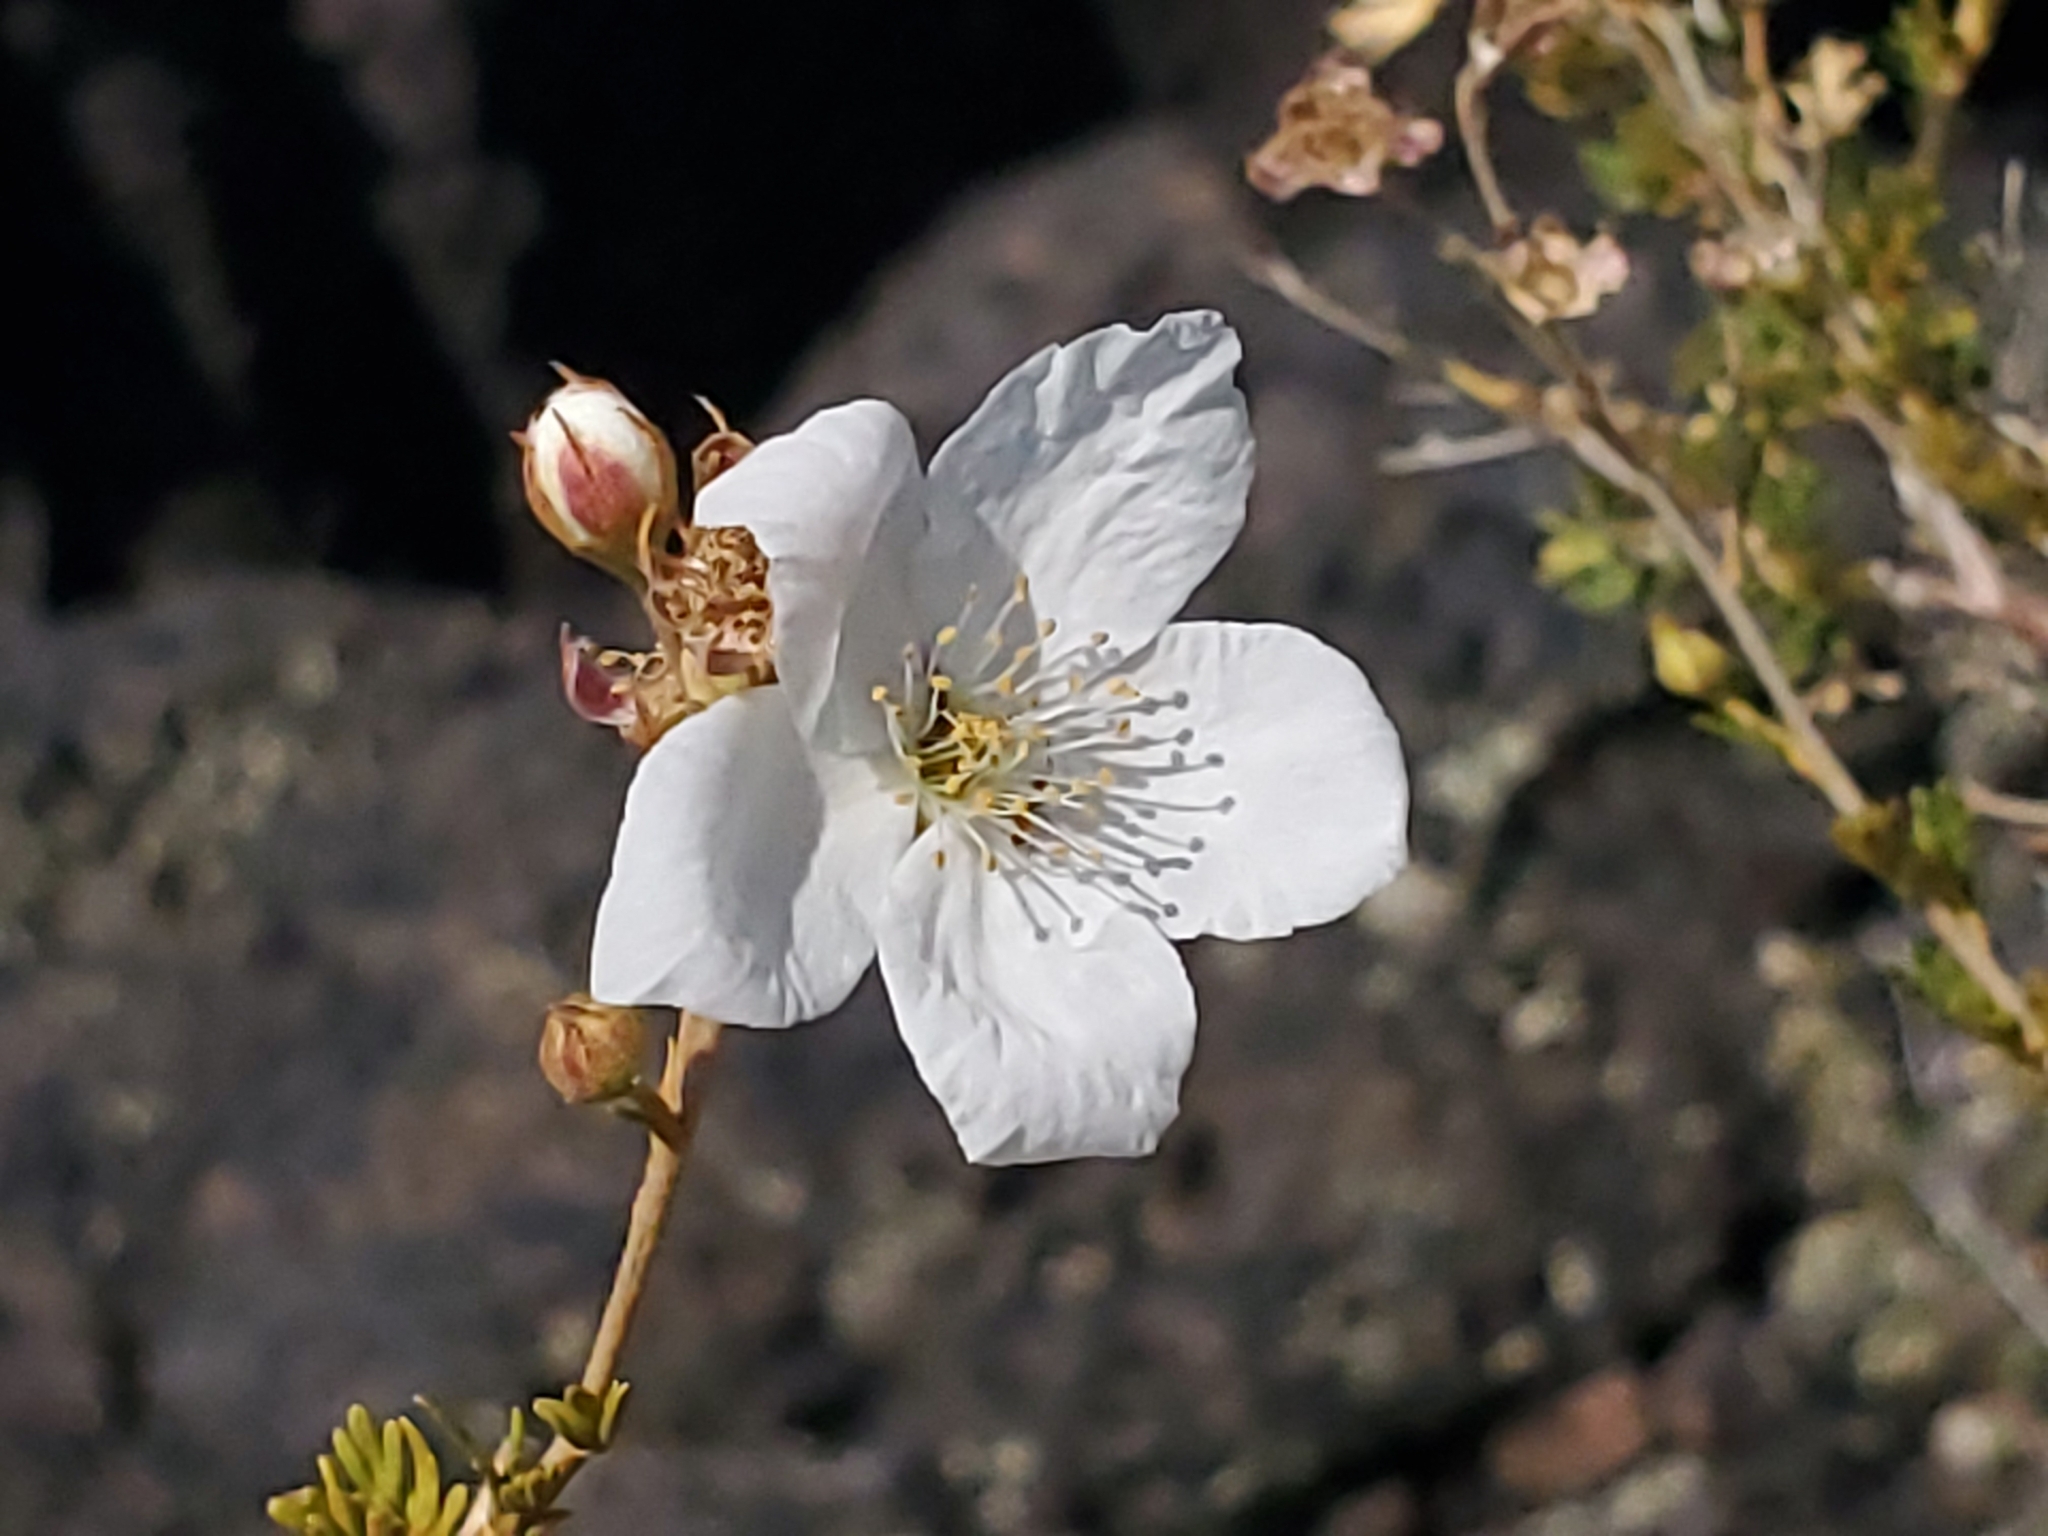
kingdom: Plantae
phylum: Tracheophyta
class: Magnoliopsida
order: Rosales
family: Rosaceae
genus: Fallugia
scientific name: Fallugia paradoxa
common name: Apache-plume
